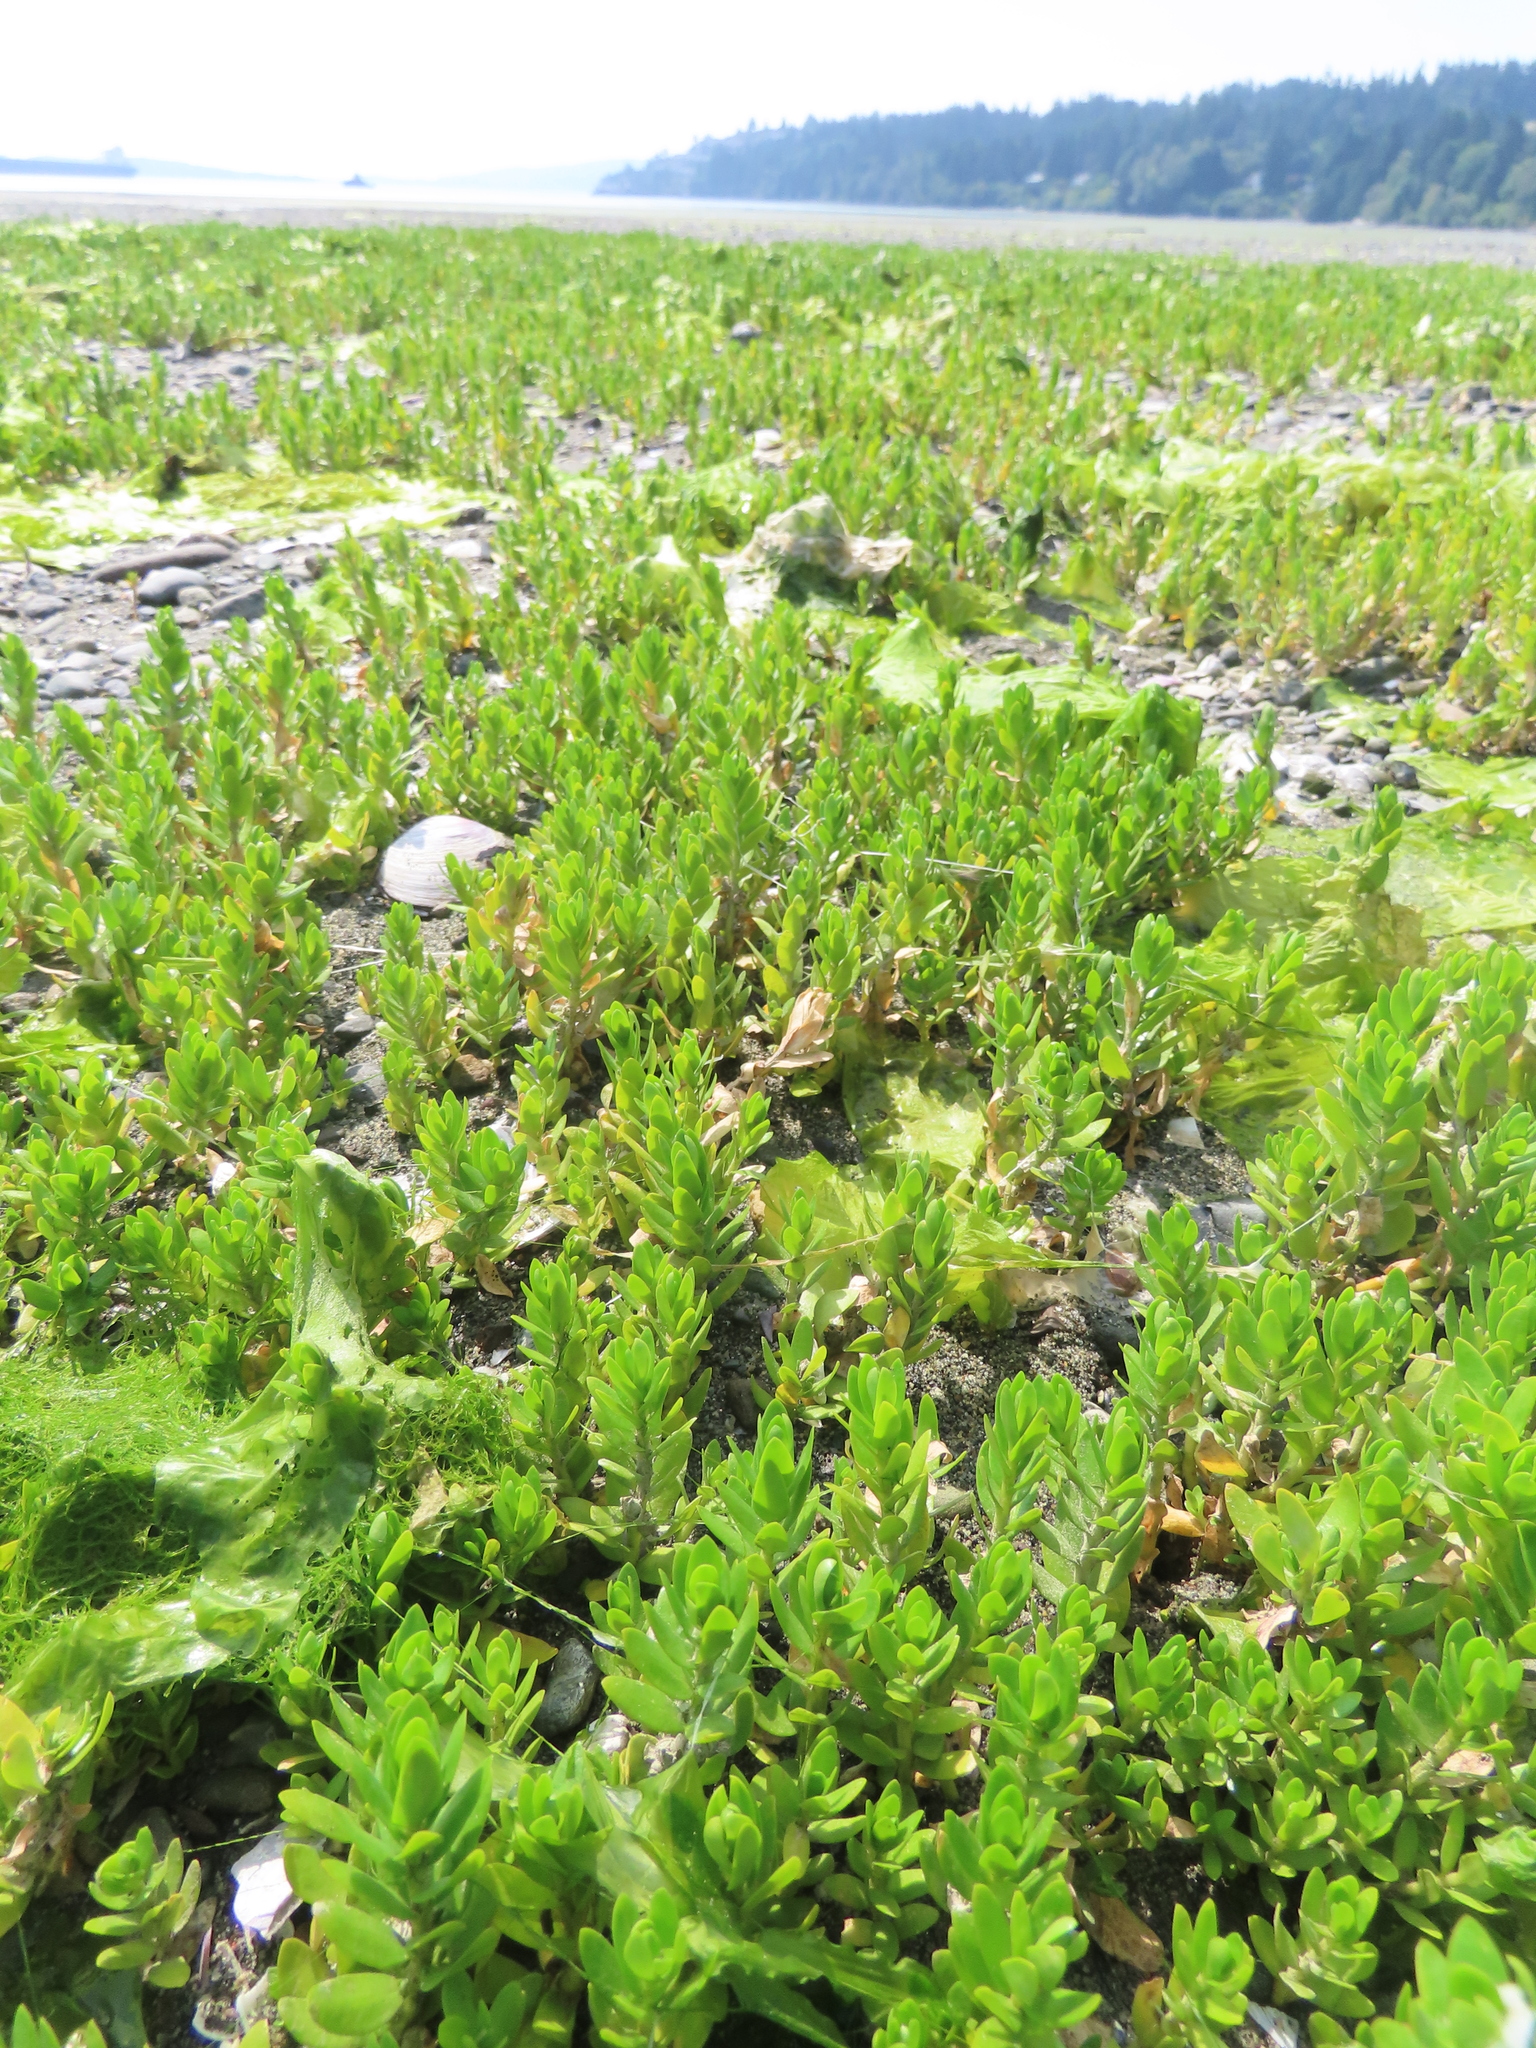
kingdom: Plantae
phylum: Tracheophyta
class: Magnoliopsida
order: Ericales
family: Primulaceae
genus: Lysimachia
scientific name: Lysimachia maritima
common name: Sea milkwort
